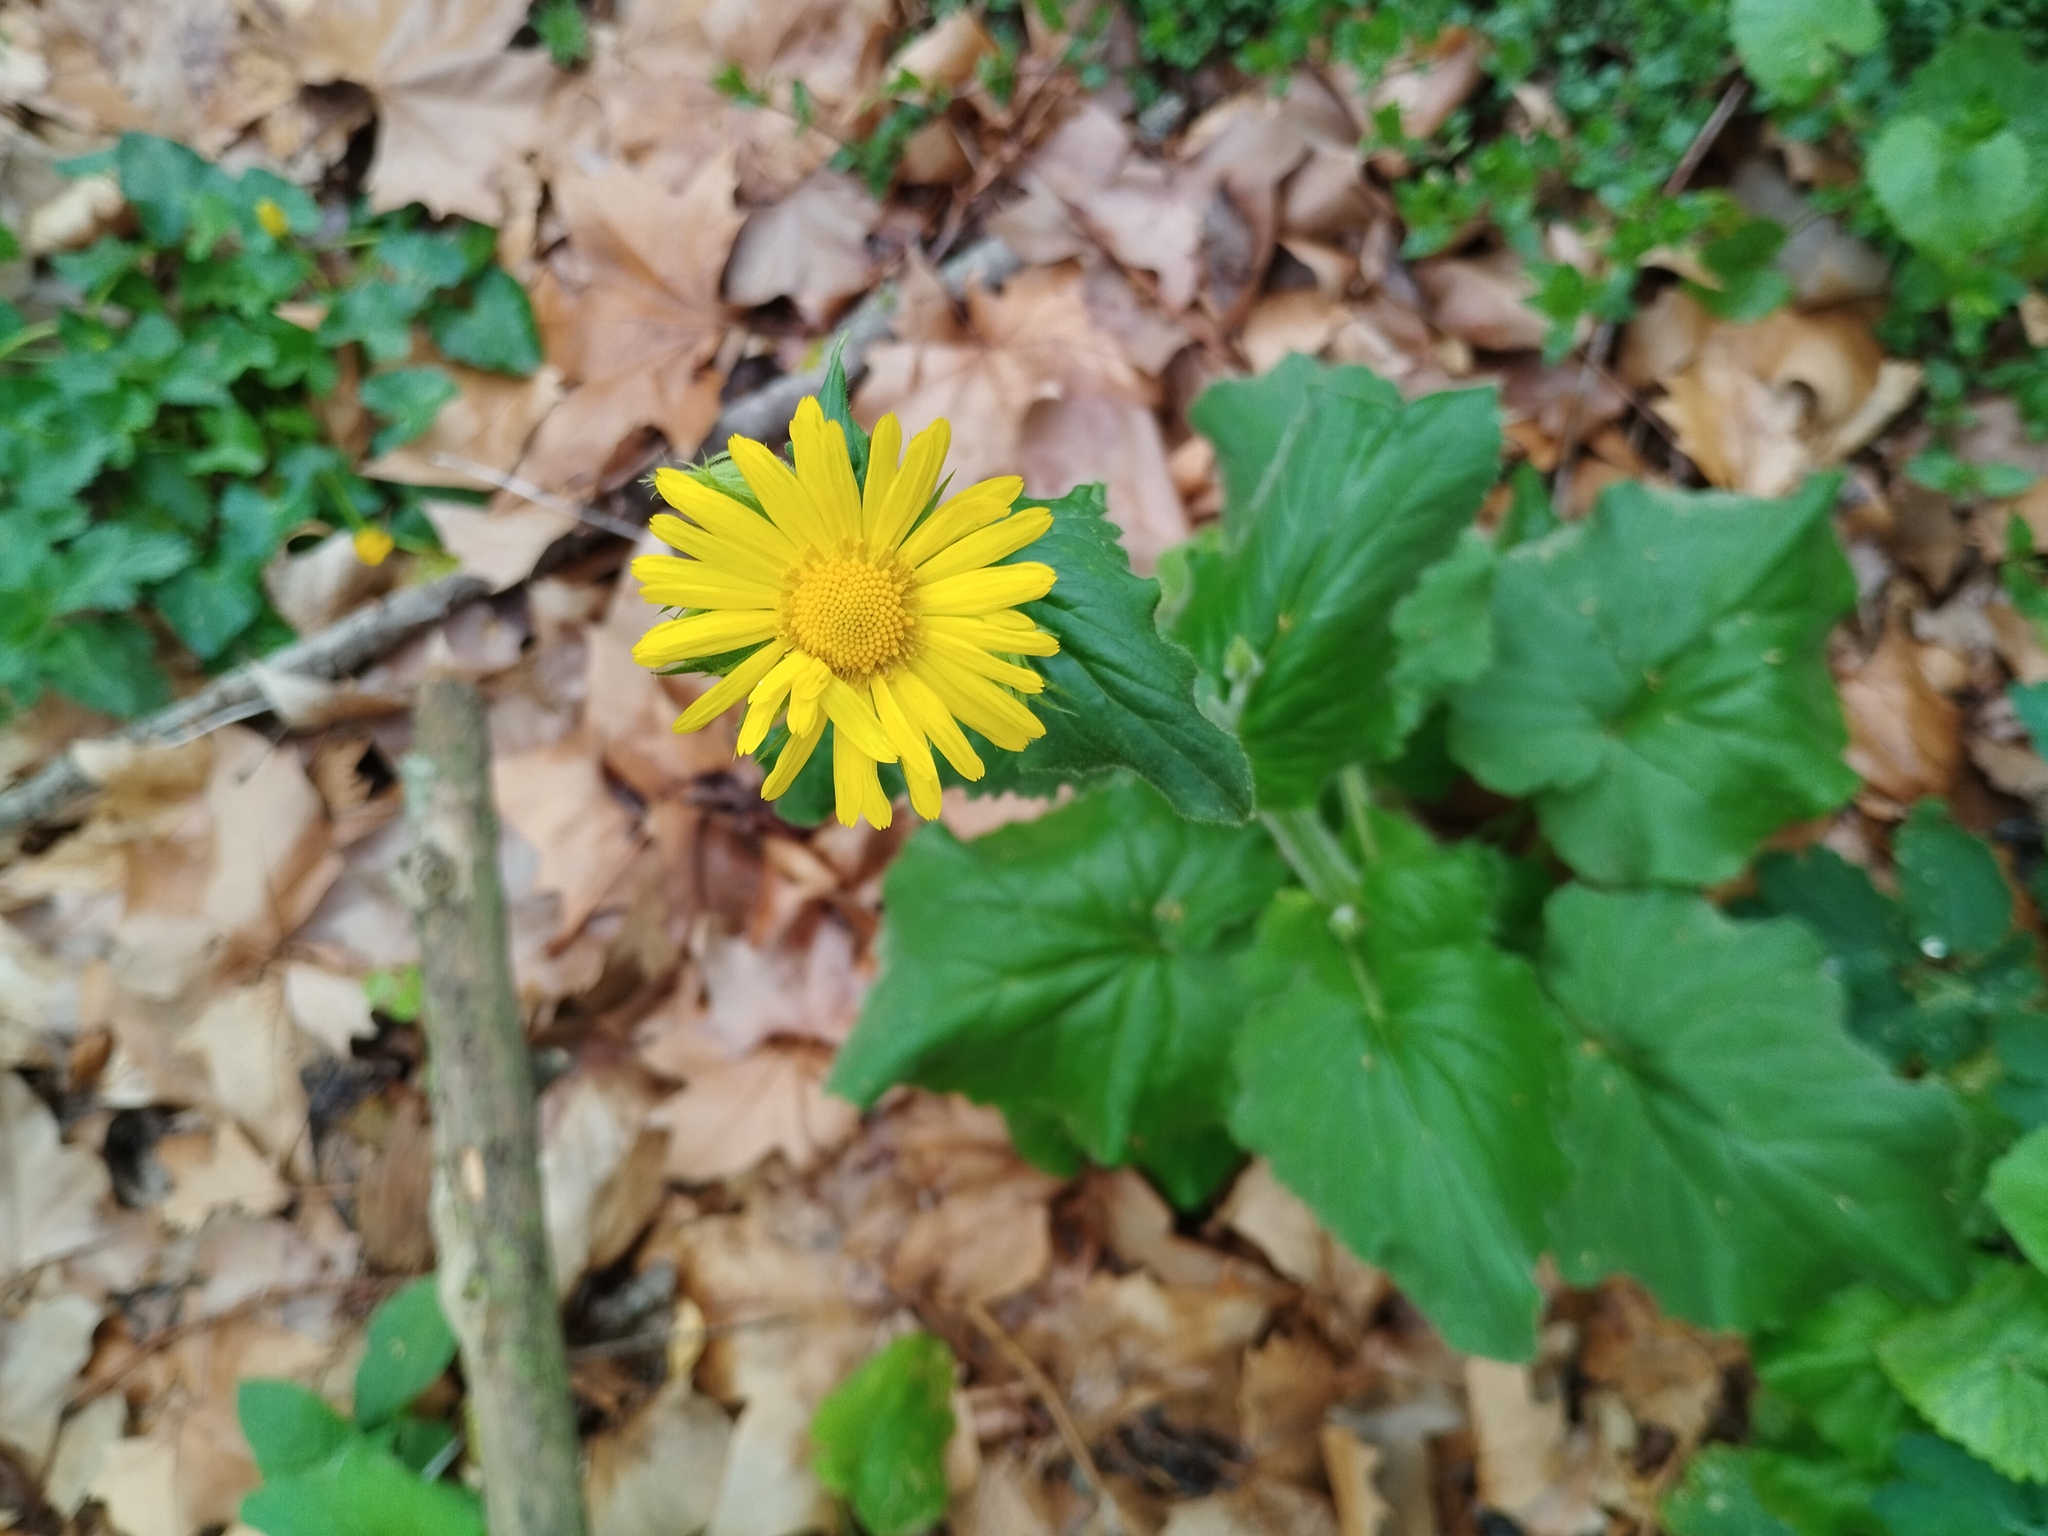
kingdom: Plantae
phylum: Tracheophyta
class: Magnoliopsida
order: Asterales
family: Asteraceae
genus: Doronicum
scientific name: Doronicum pardalianches
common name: Leopard's-bane
